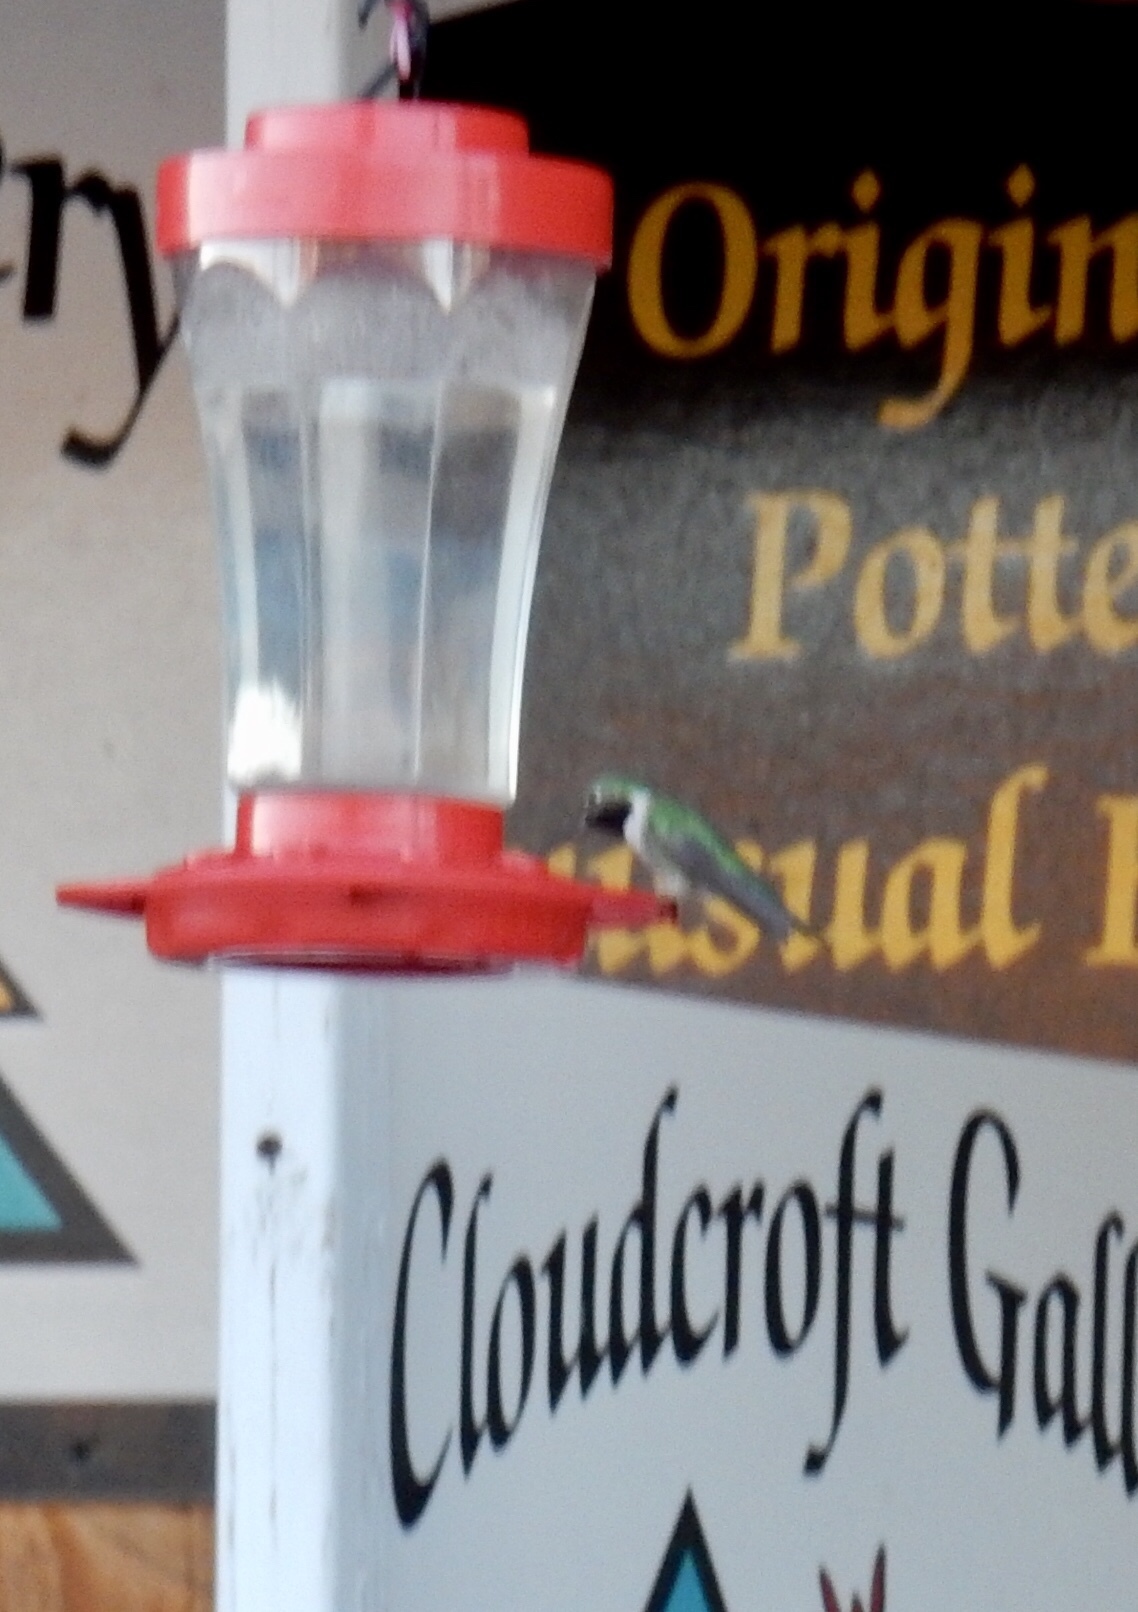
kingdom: Animalia
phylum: Chordata
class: Aves
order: Apodiformes
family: Trochilidae
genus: Selasphorus
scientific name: Selasphorus platycercus
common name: Broad-tailed hummingbird
